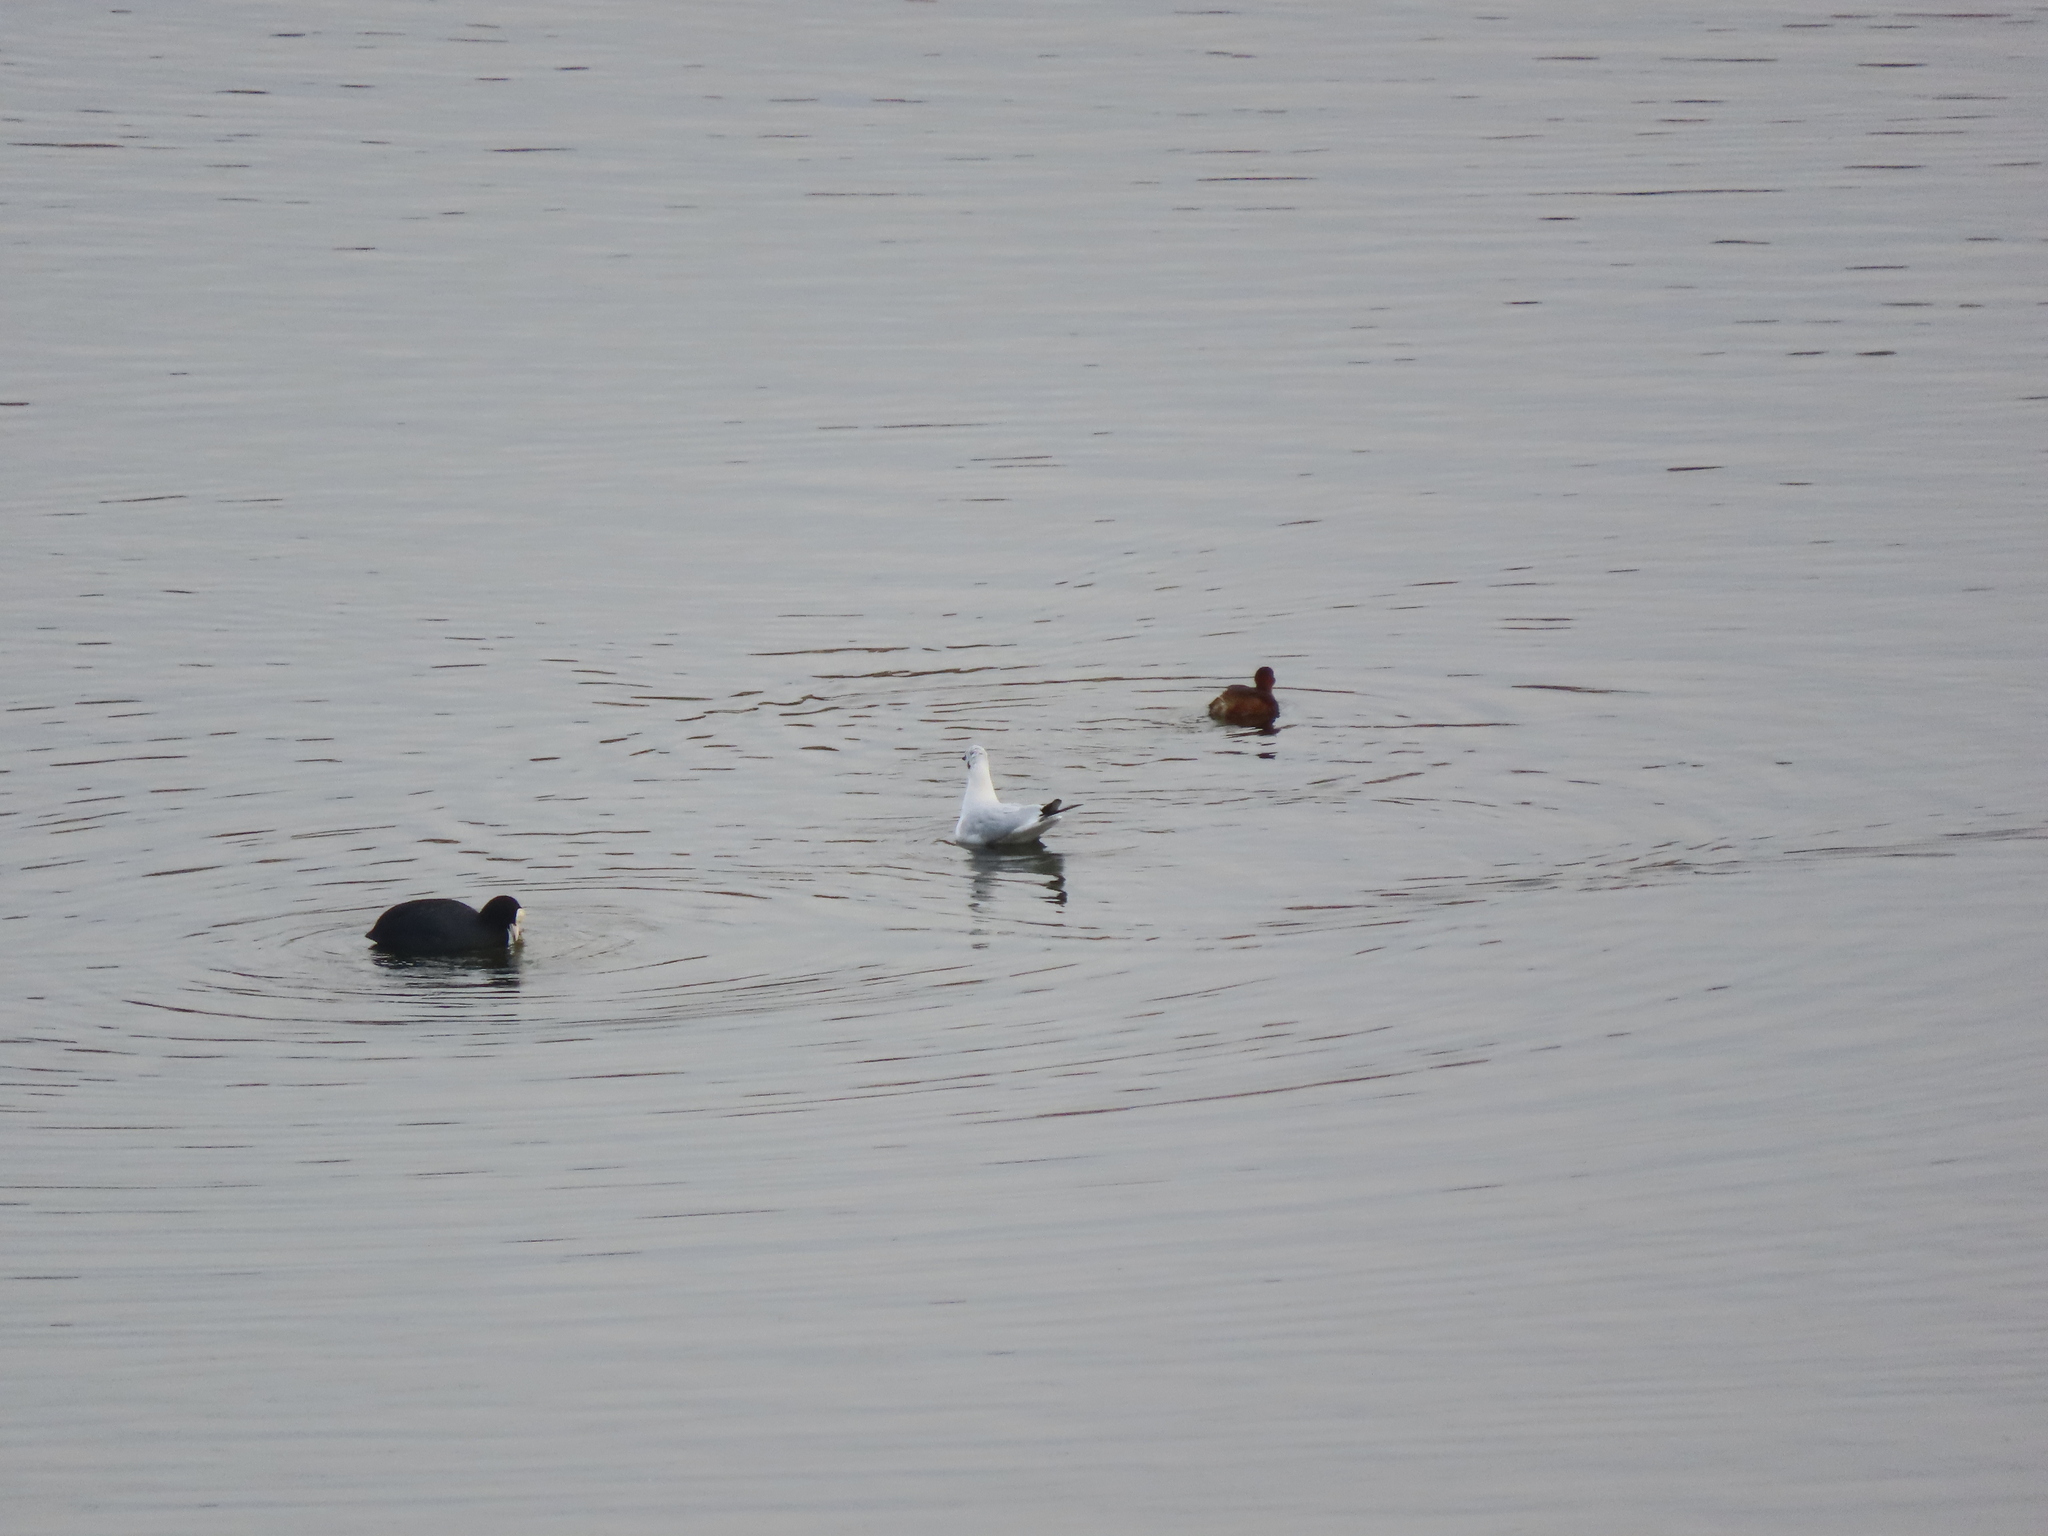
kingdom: Animalia
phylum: Chordata
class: Aves
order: Podicipediformes
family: Podicipedidae
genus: Tachybaptus
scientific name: Tachybaptus ruficollis
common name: Little grebe
